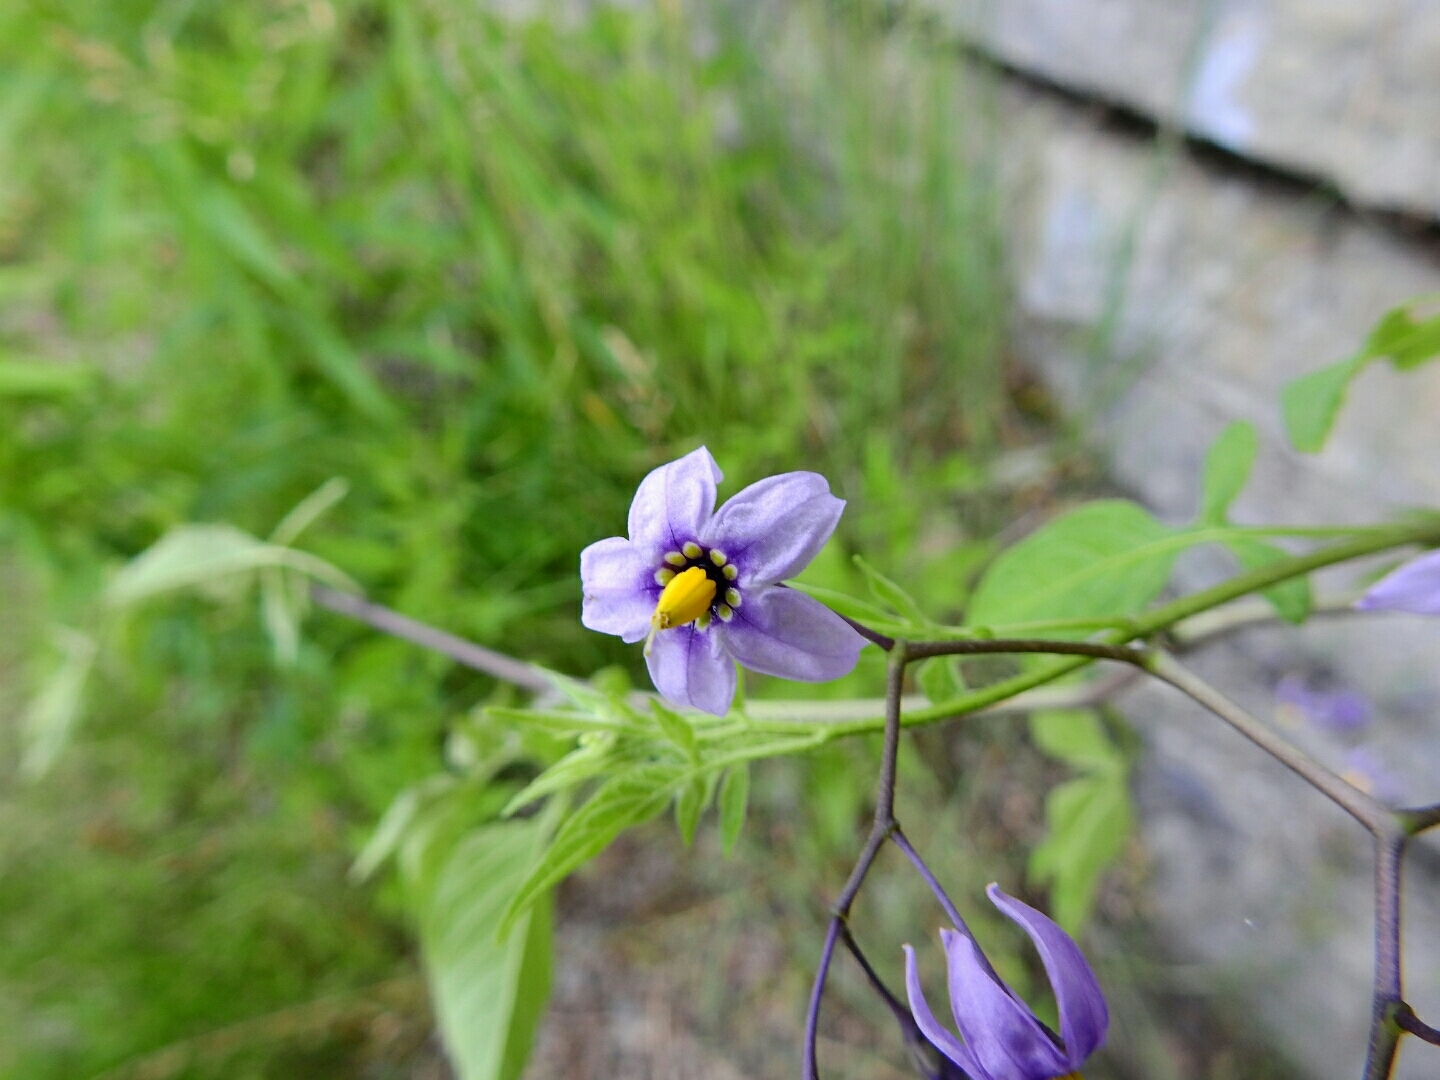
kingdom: Plantae
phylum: Tracheophyta
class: Magnoliopsida
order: Solanales
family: Solanaceae
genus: Solanum
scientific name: Solanum dulcamara
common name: Climbing nightshade
